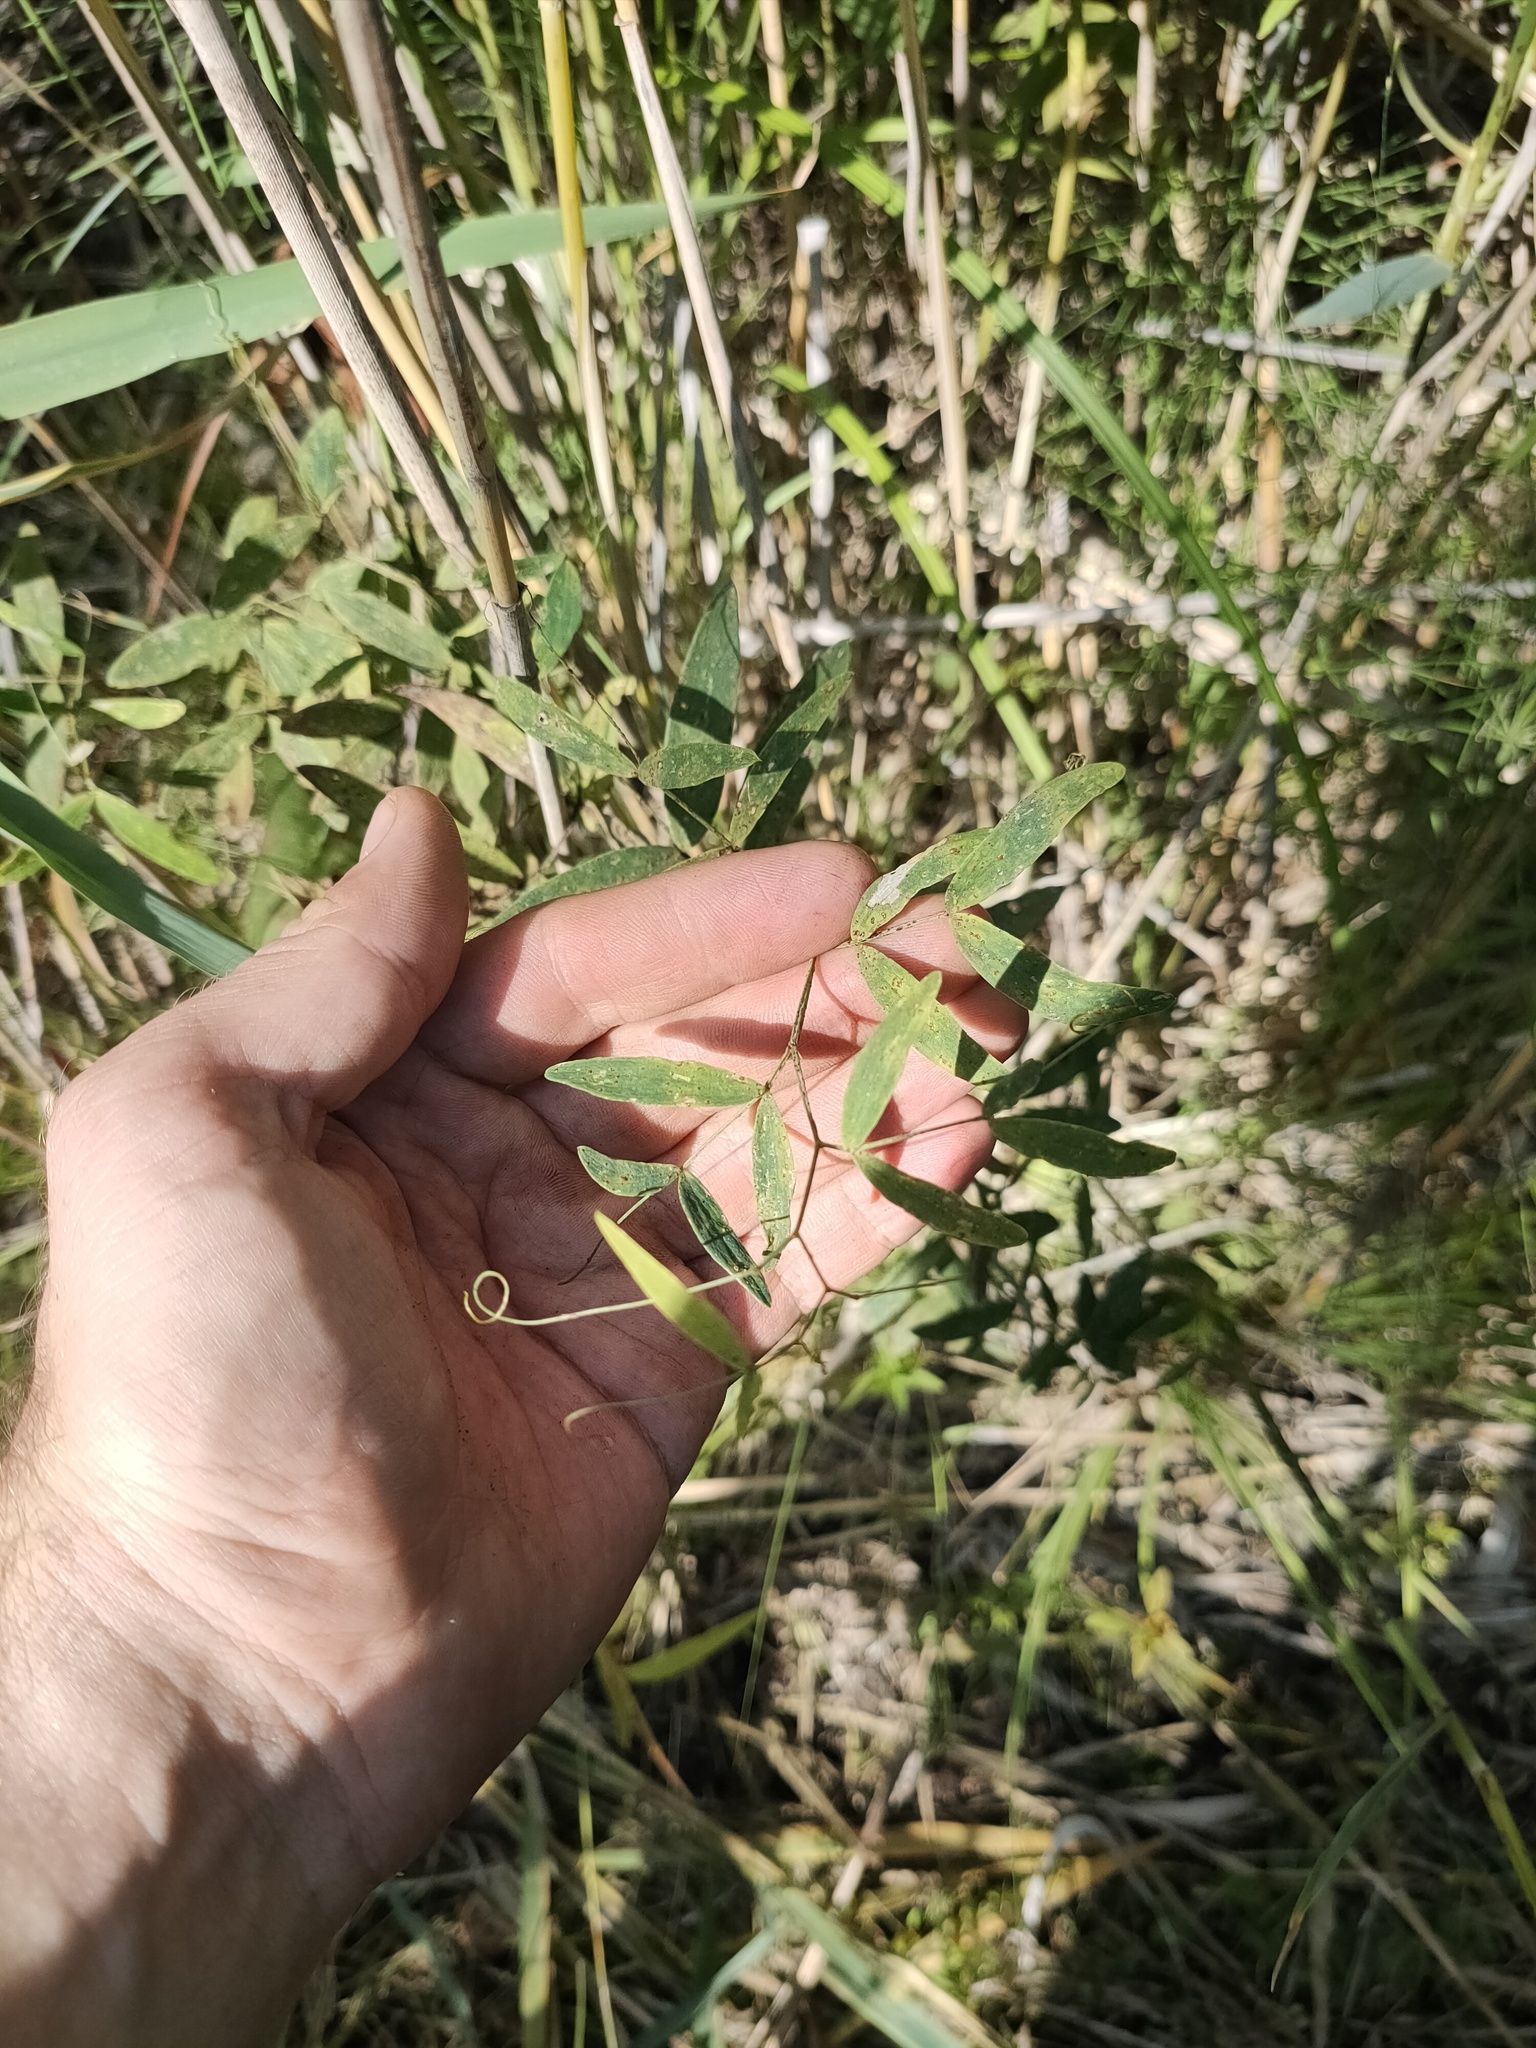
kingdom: Plantae
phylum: Tracheophyta
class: Magnoliopsida
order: Fabales
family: Fabaceae
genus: Lathyrus
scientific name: Lathyrus palustris
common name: Marsh pea
